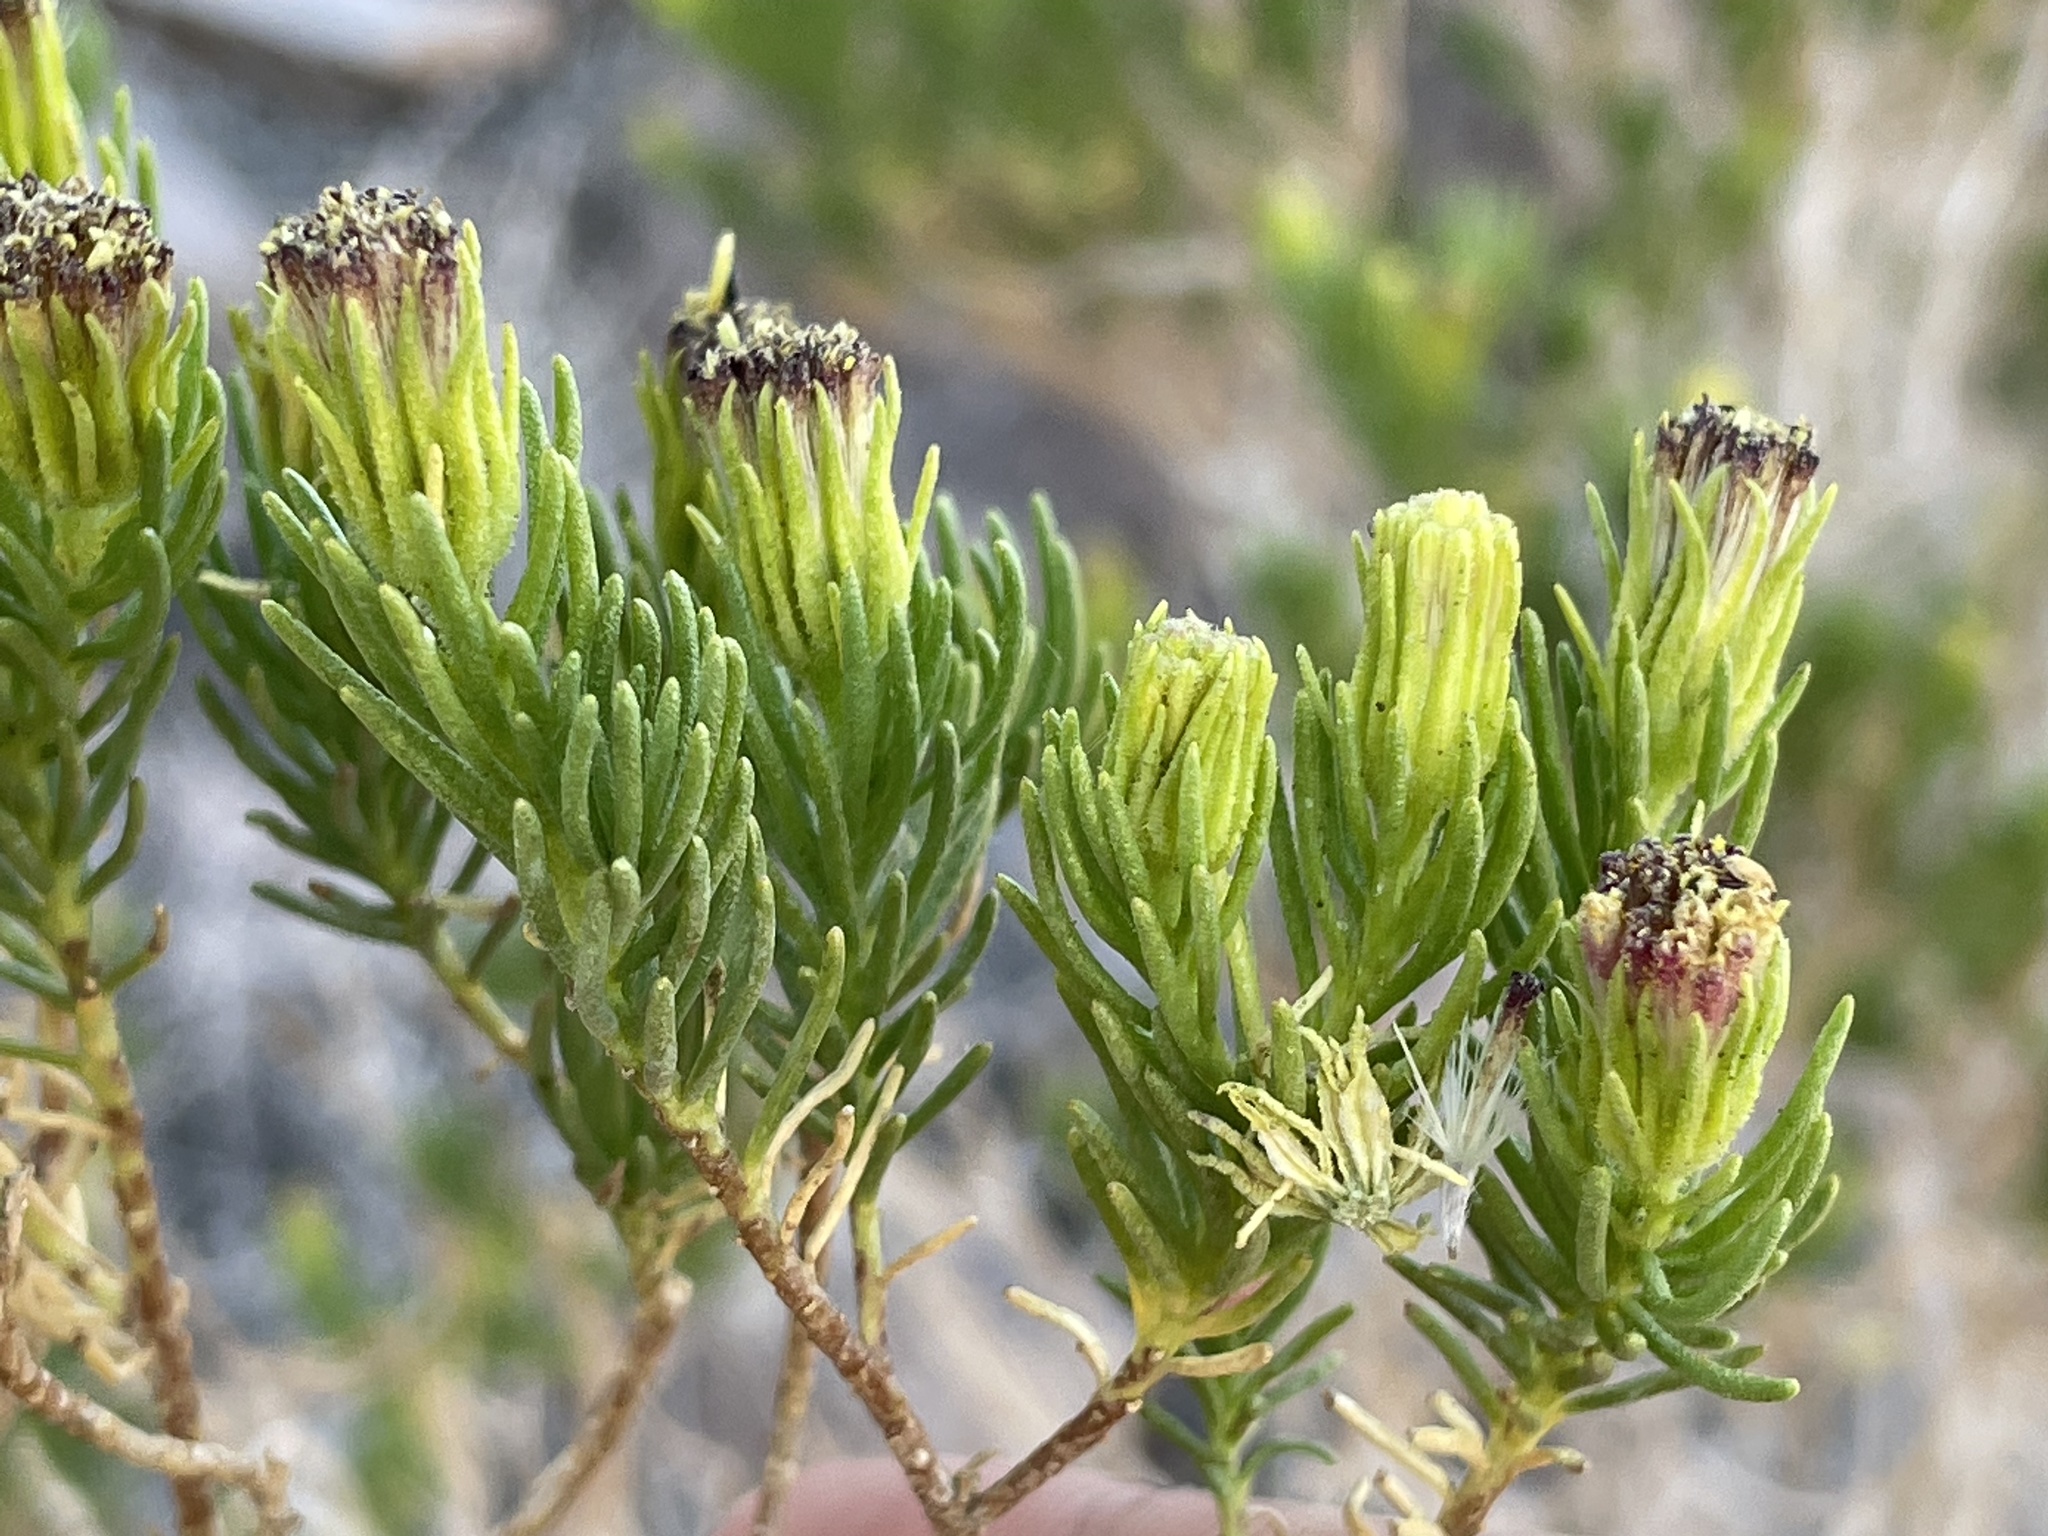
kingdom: Plantae
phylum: Tracheophyta
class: Magnoliopsida
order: Asterales
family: Asteraceae
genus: Peucephyllum
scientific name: Peucephyllum schottii
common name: Pygmy-cedar
